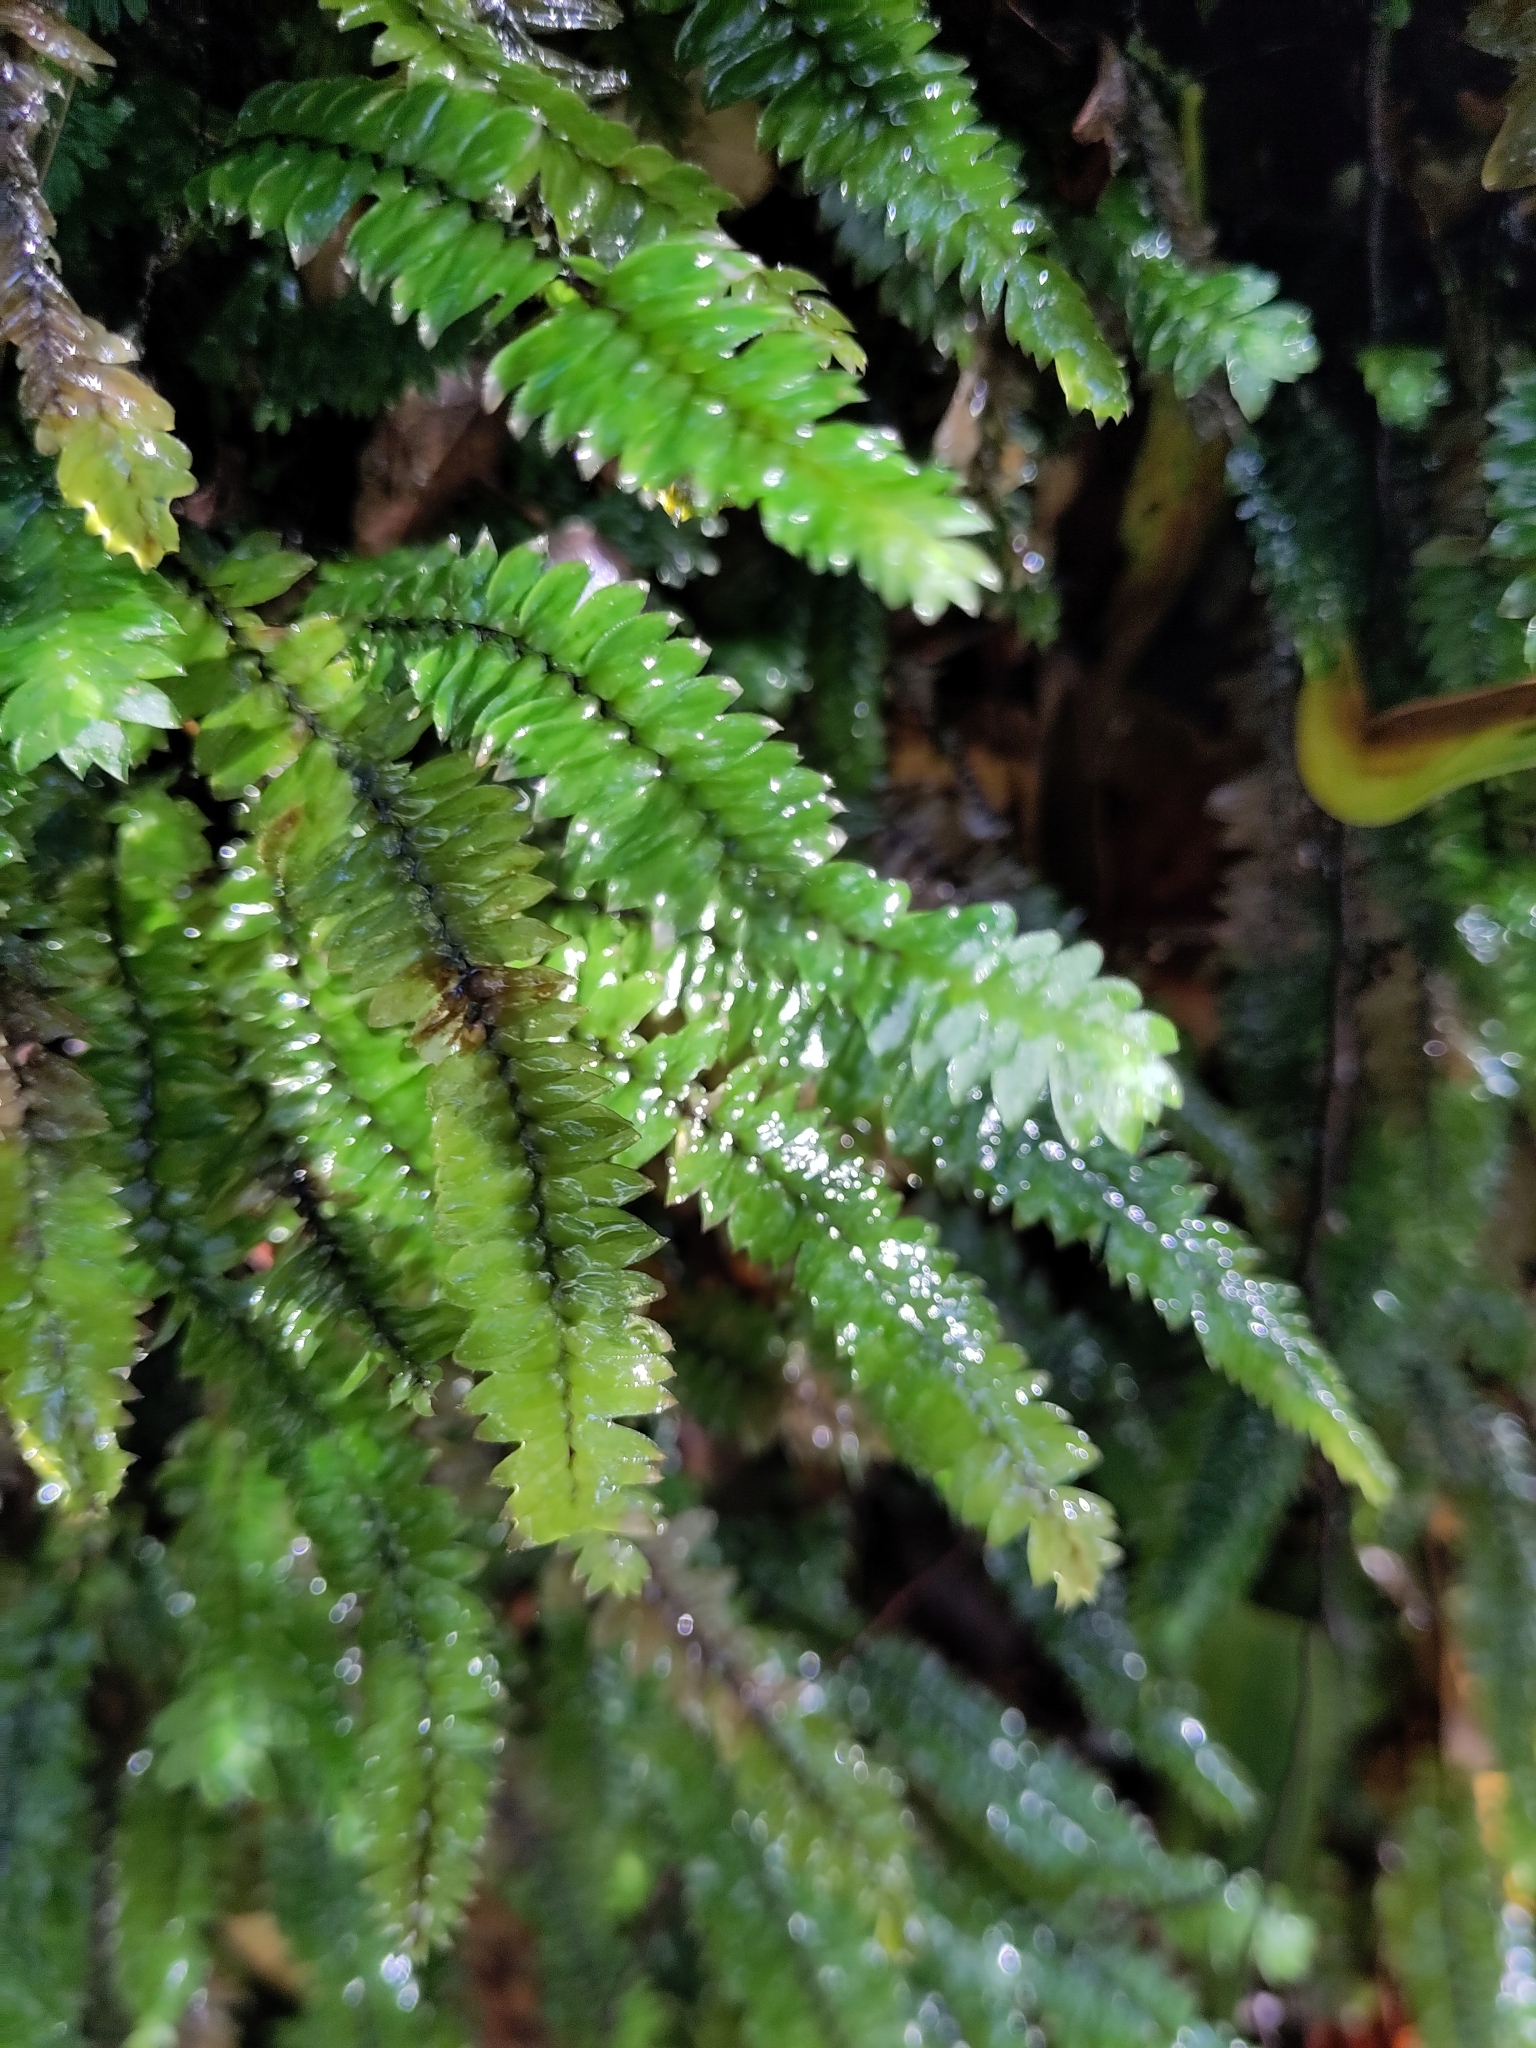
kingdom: Plantae
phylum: Bryophyta
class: Bryopsida
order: Hypopterygiales
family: Hypopterygiaceae
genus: Cyathophorum
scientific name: Cyathophorum bulbosum
